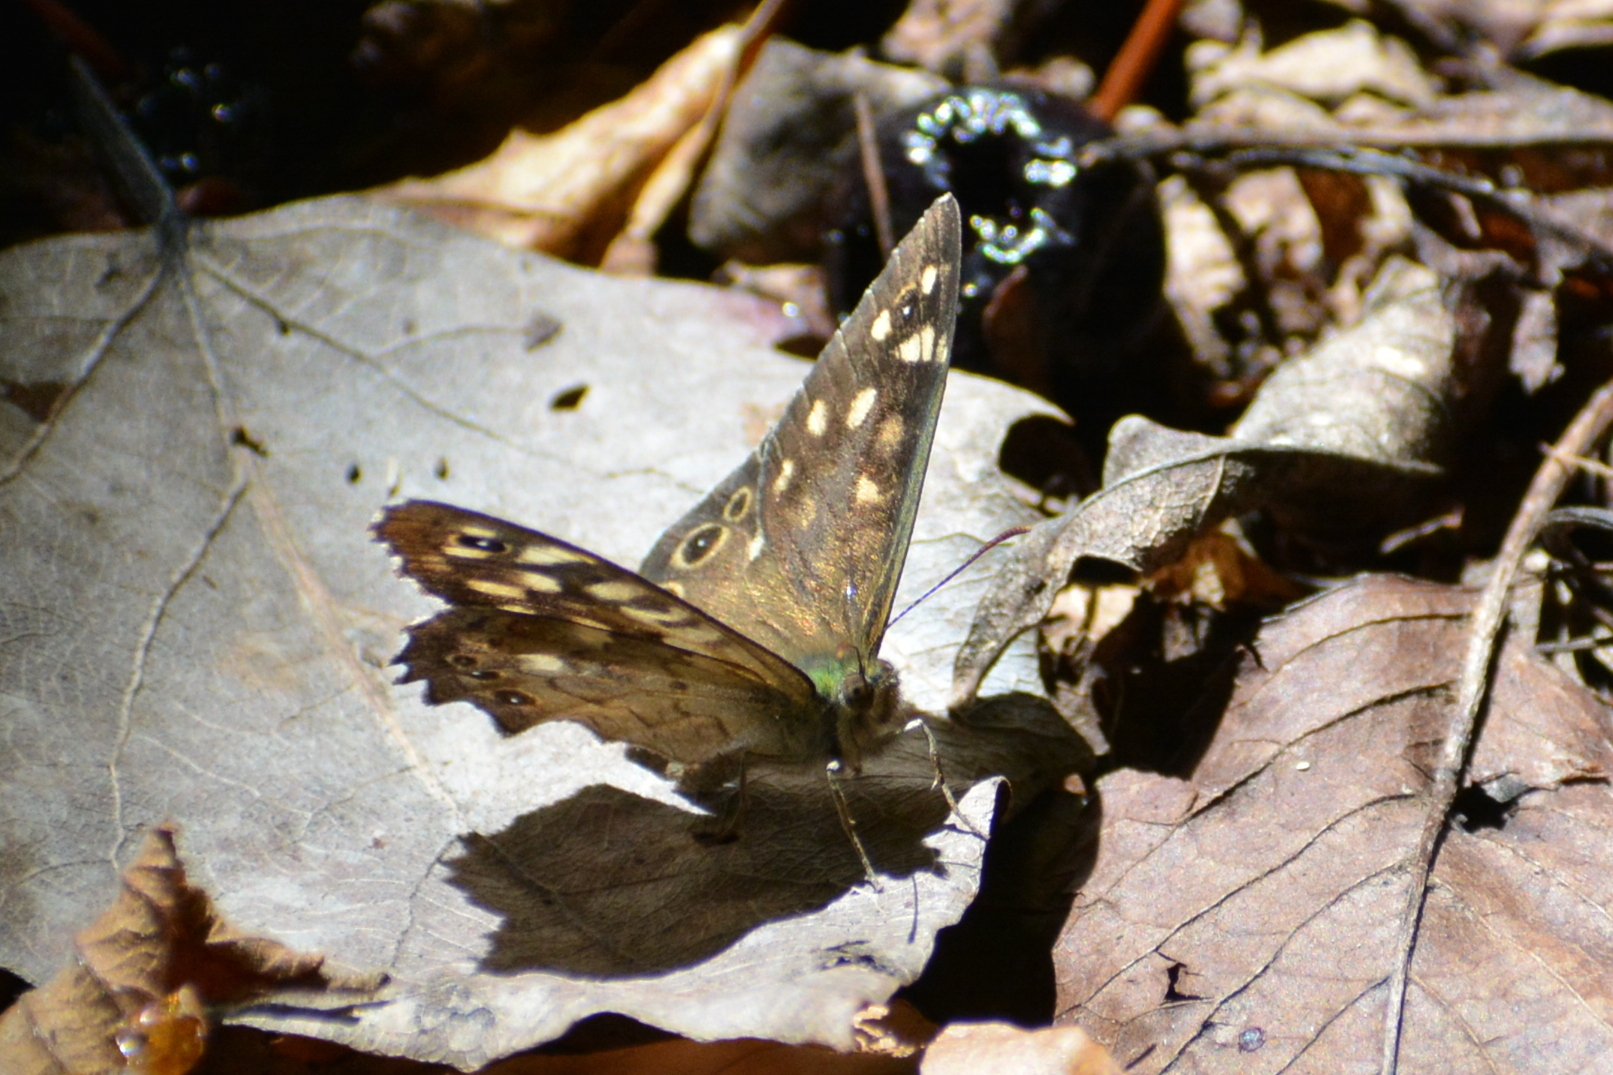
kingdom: Animalia
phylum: Arthropoda
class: Insecta
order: Lepidoptera
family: Nymphalidae
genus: Pararge
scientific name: Pararge aegeria
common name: Speckled wood
